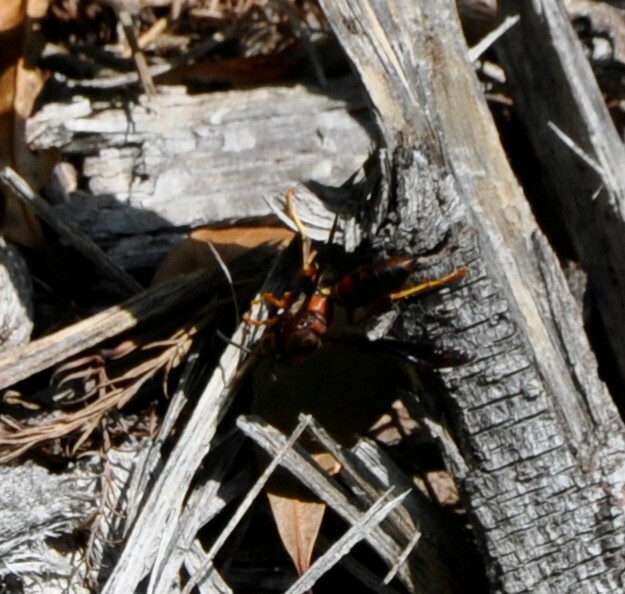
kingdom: Animalia
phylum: Arthropoda
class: Insecta
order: Hymenoptera
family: Vespidae
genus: Fuscopolistes
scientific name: Fuscopolistes
